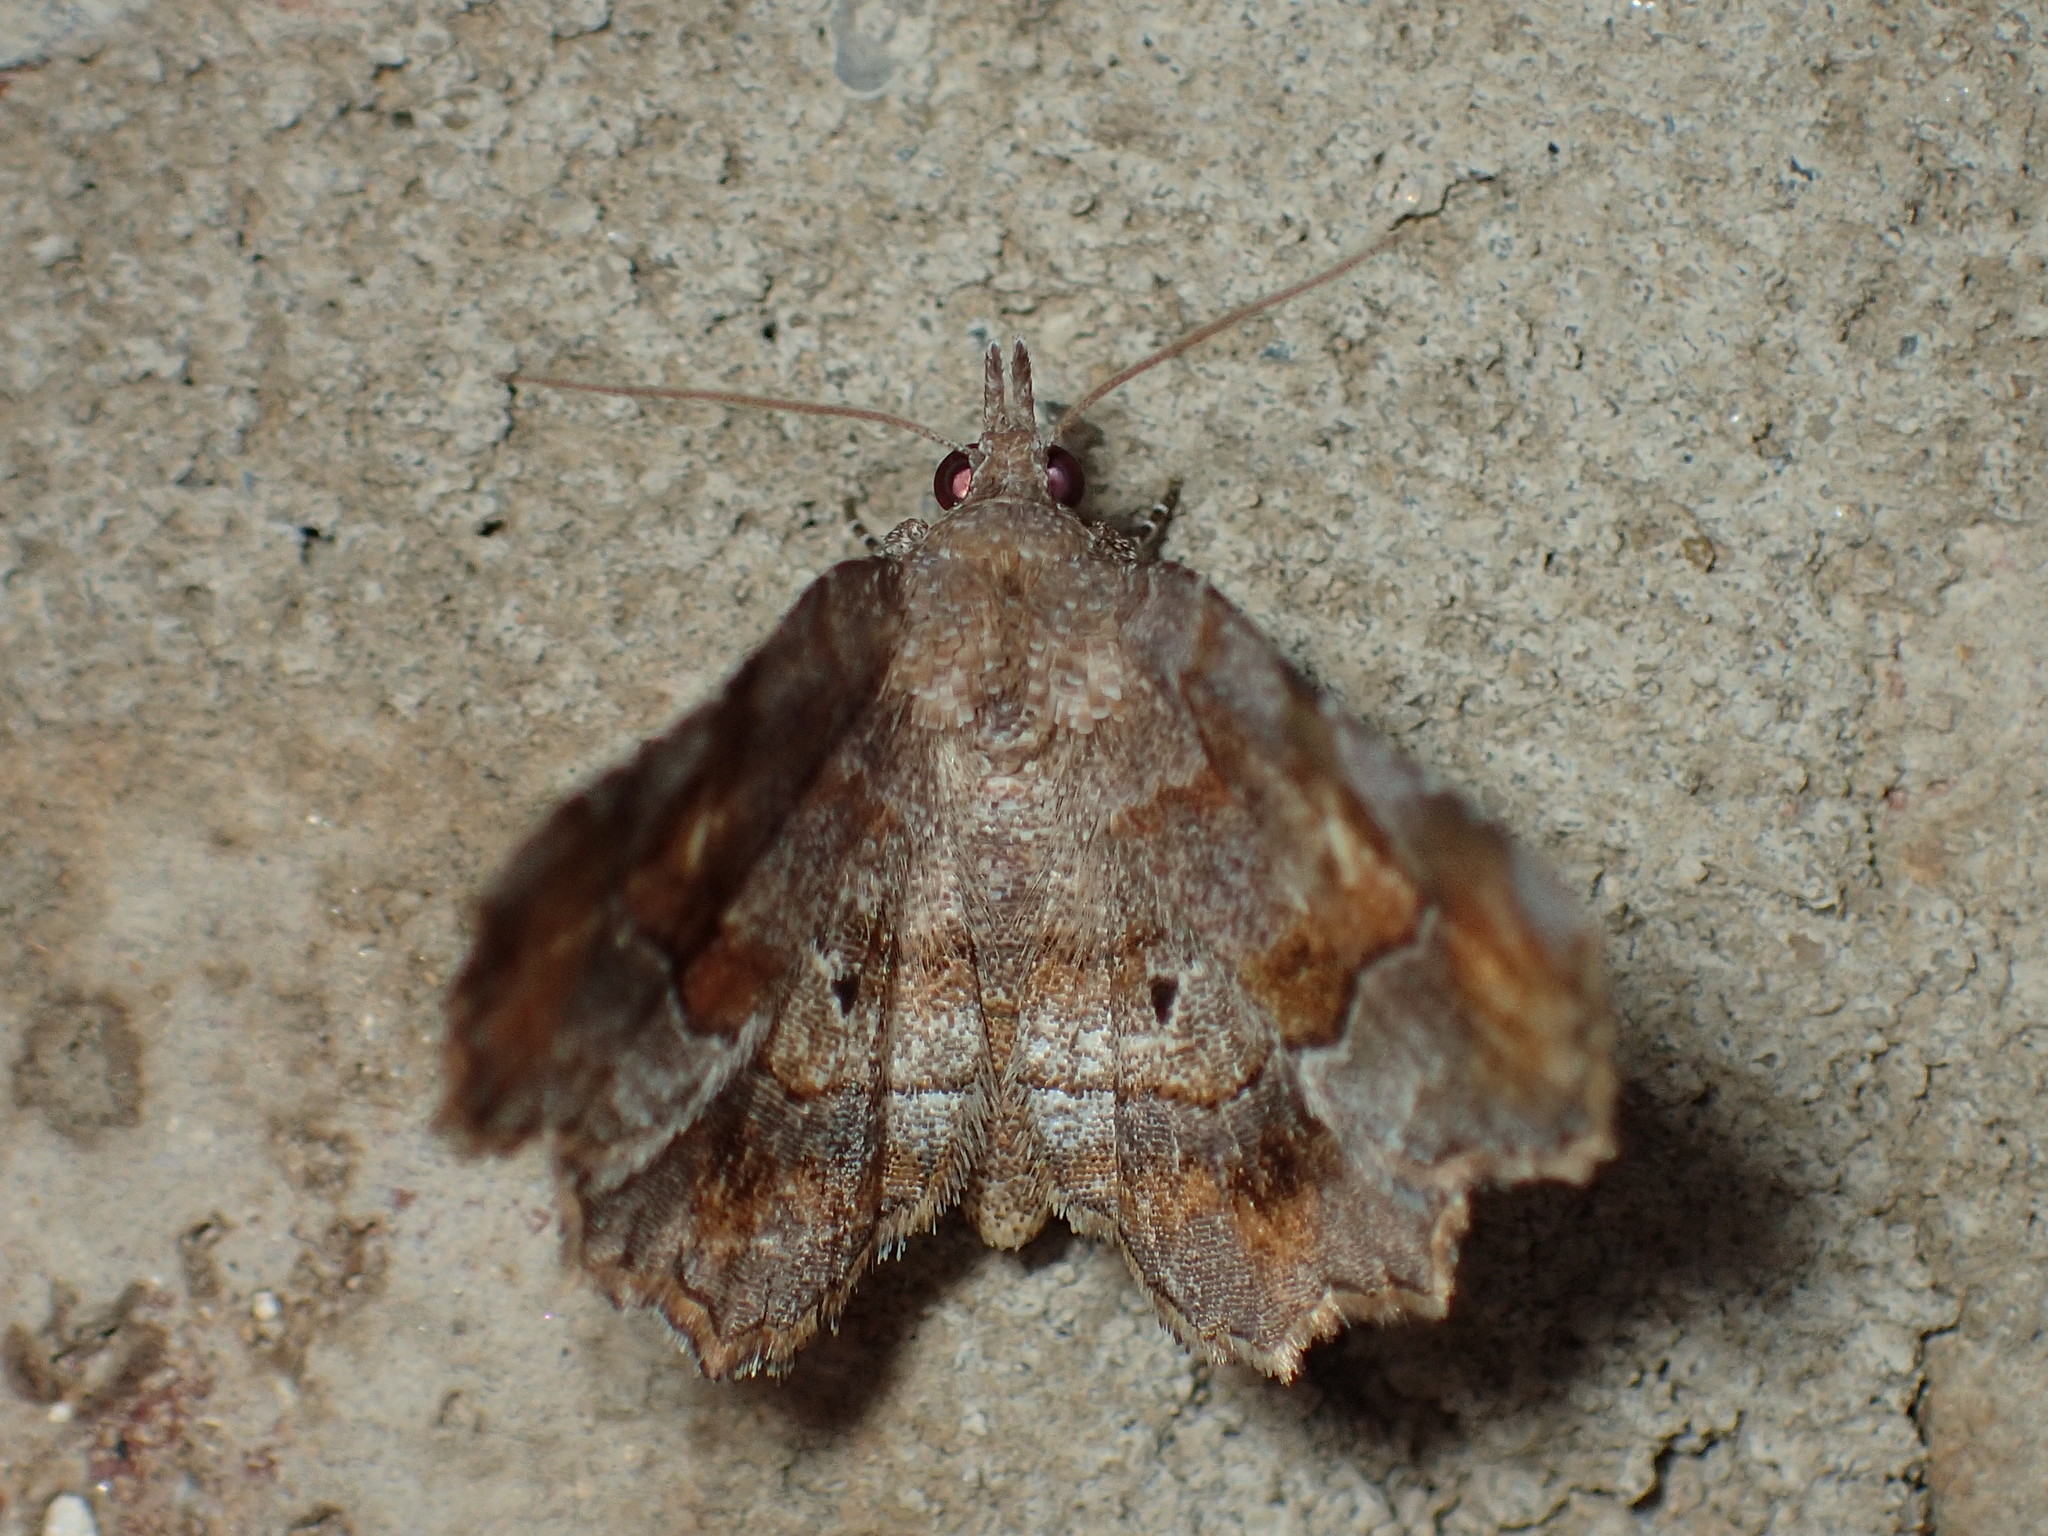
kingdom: Animalia
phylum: Arthropoda
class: Insecta
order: Lepidoptera
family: Erebidae
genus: Pangrapta
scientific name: Pangrapta decoralis
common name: Decorated owlet
